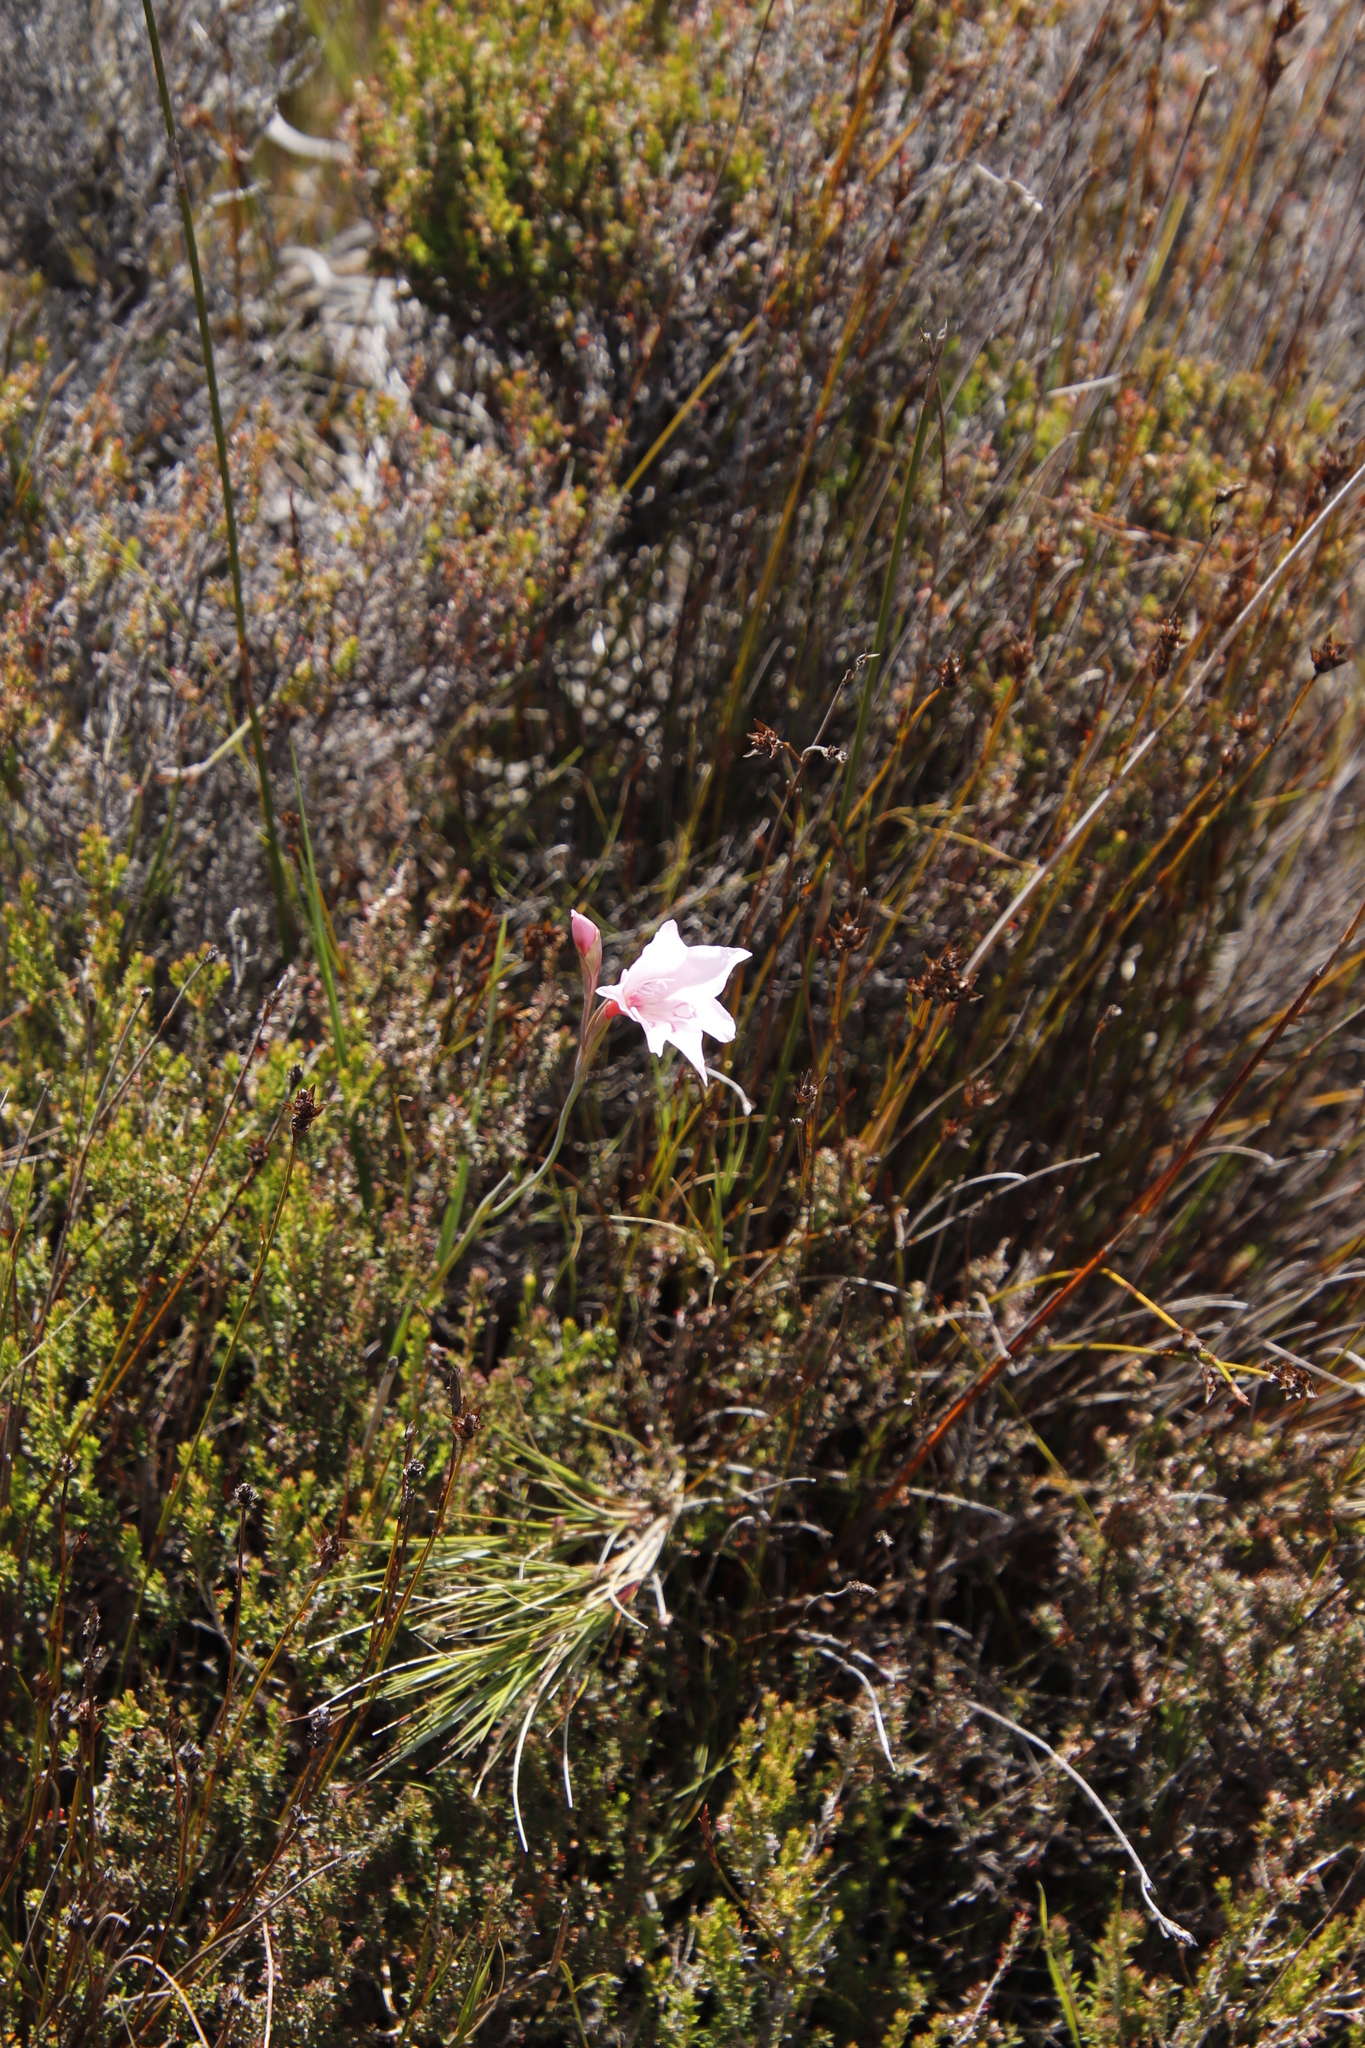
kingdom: Plantae
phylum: Tracheophyta
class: Liliopsida
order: Asparagales
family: Iridaceae
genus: Gladiolus
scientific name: Gladiolus pappei
